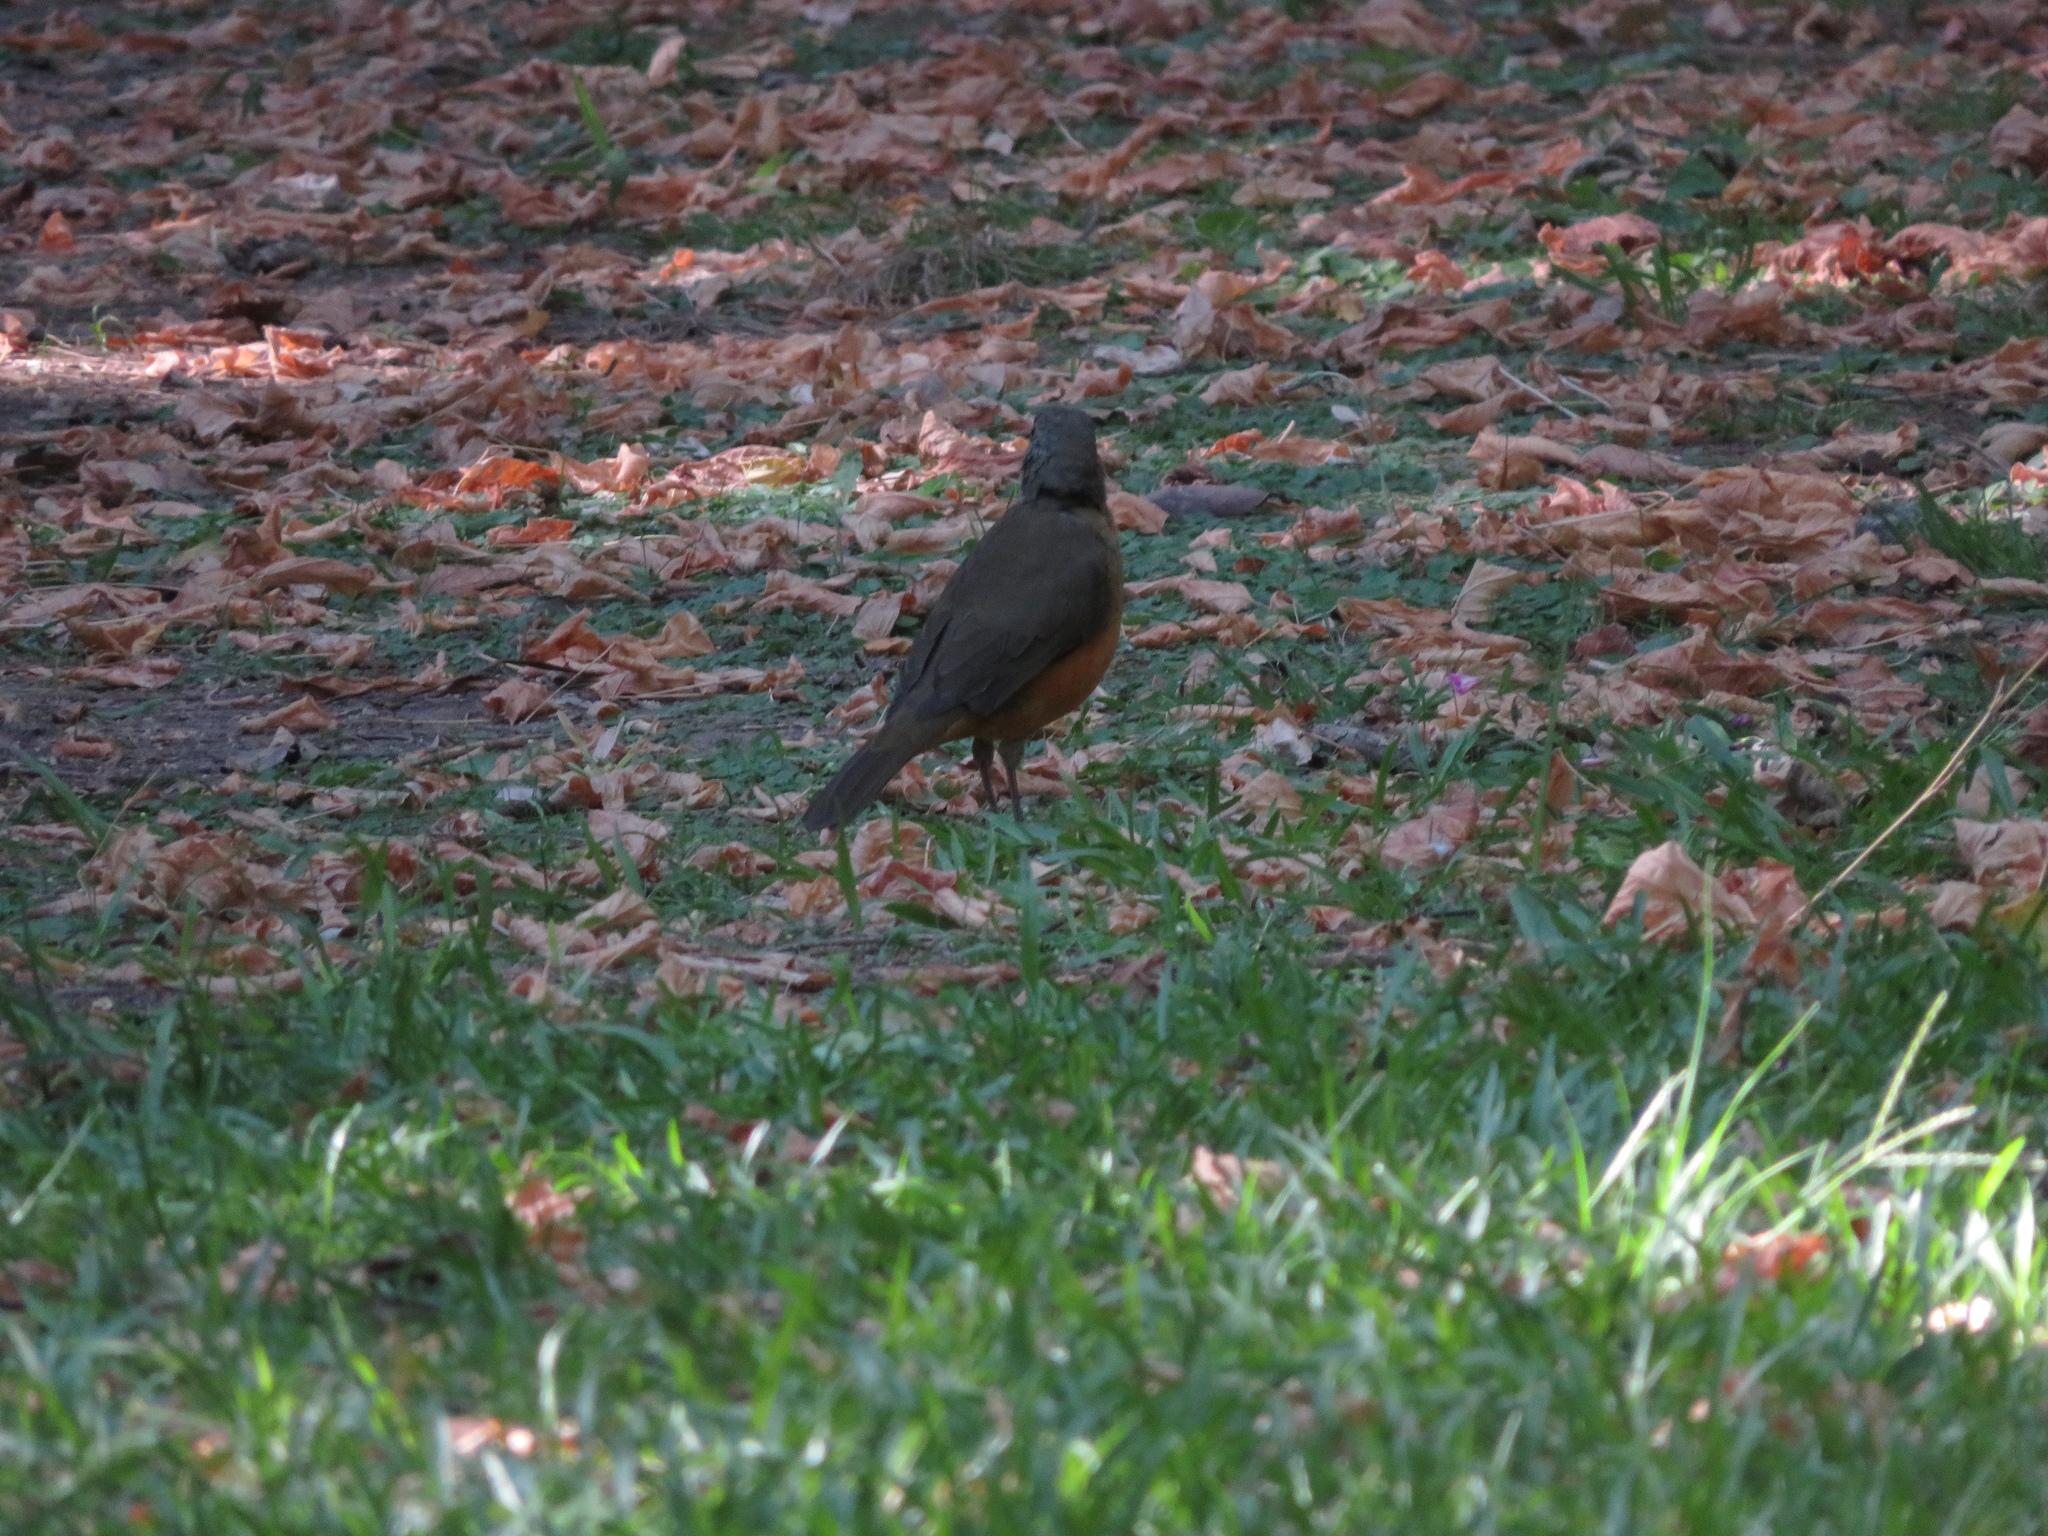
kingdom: Animalia
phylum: Chordata
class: Aves
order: Passeriformes
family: Turdidae
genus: Turdus
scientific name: Turdus rufiventris
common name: Rufous-bellied thrush
